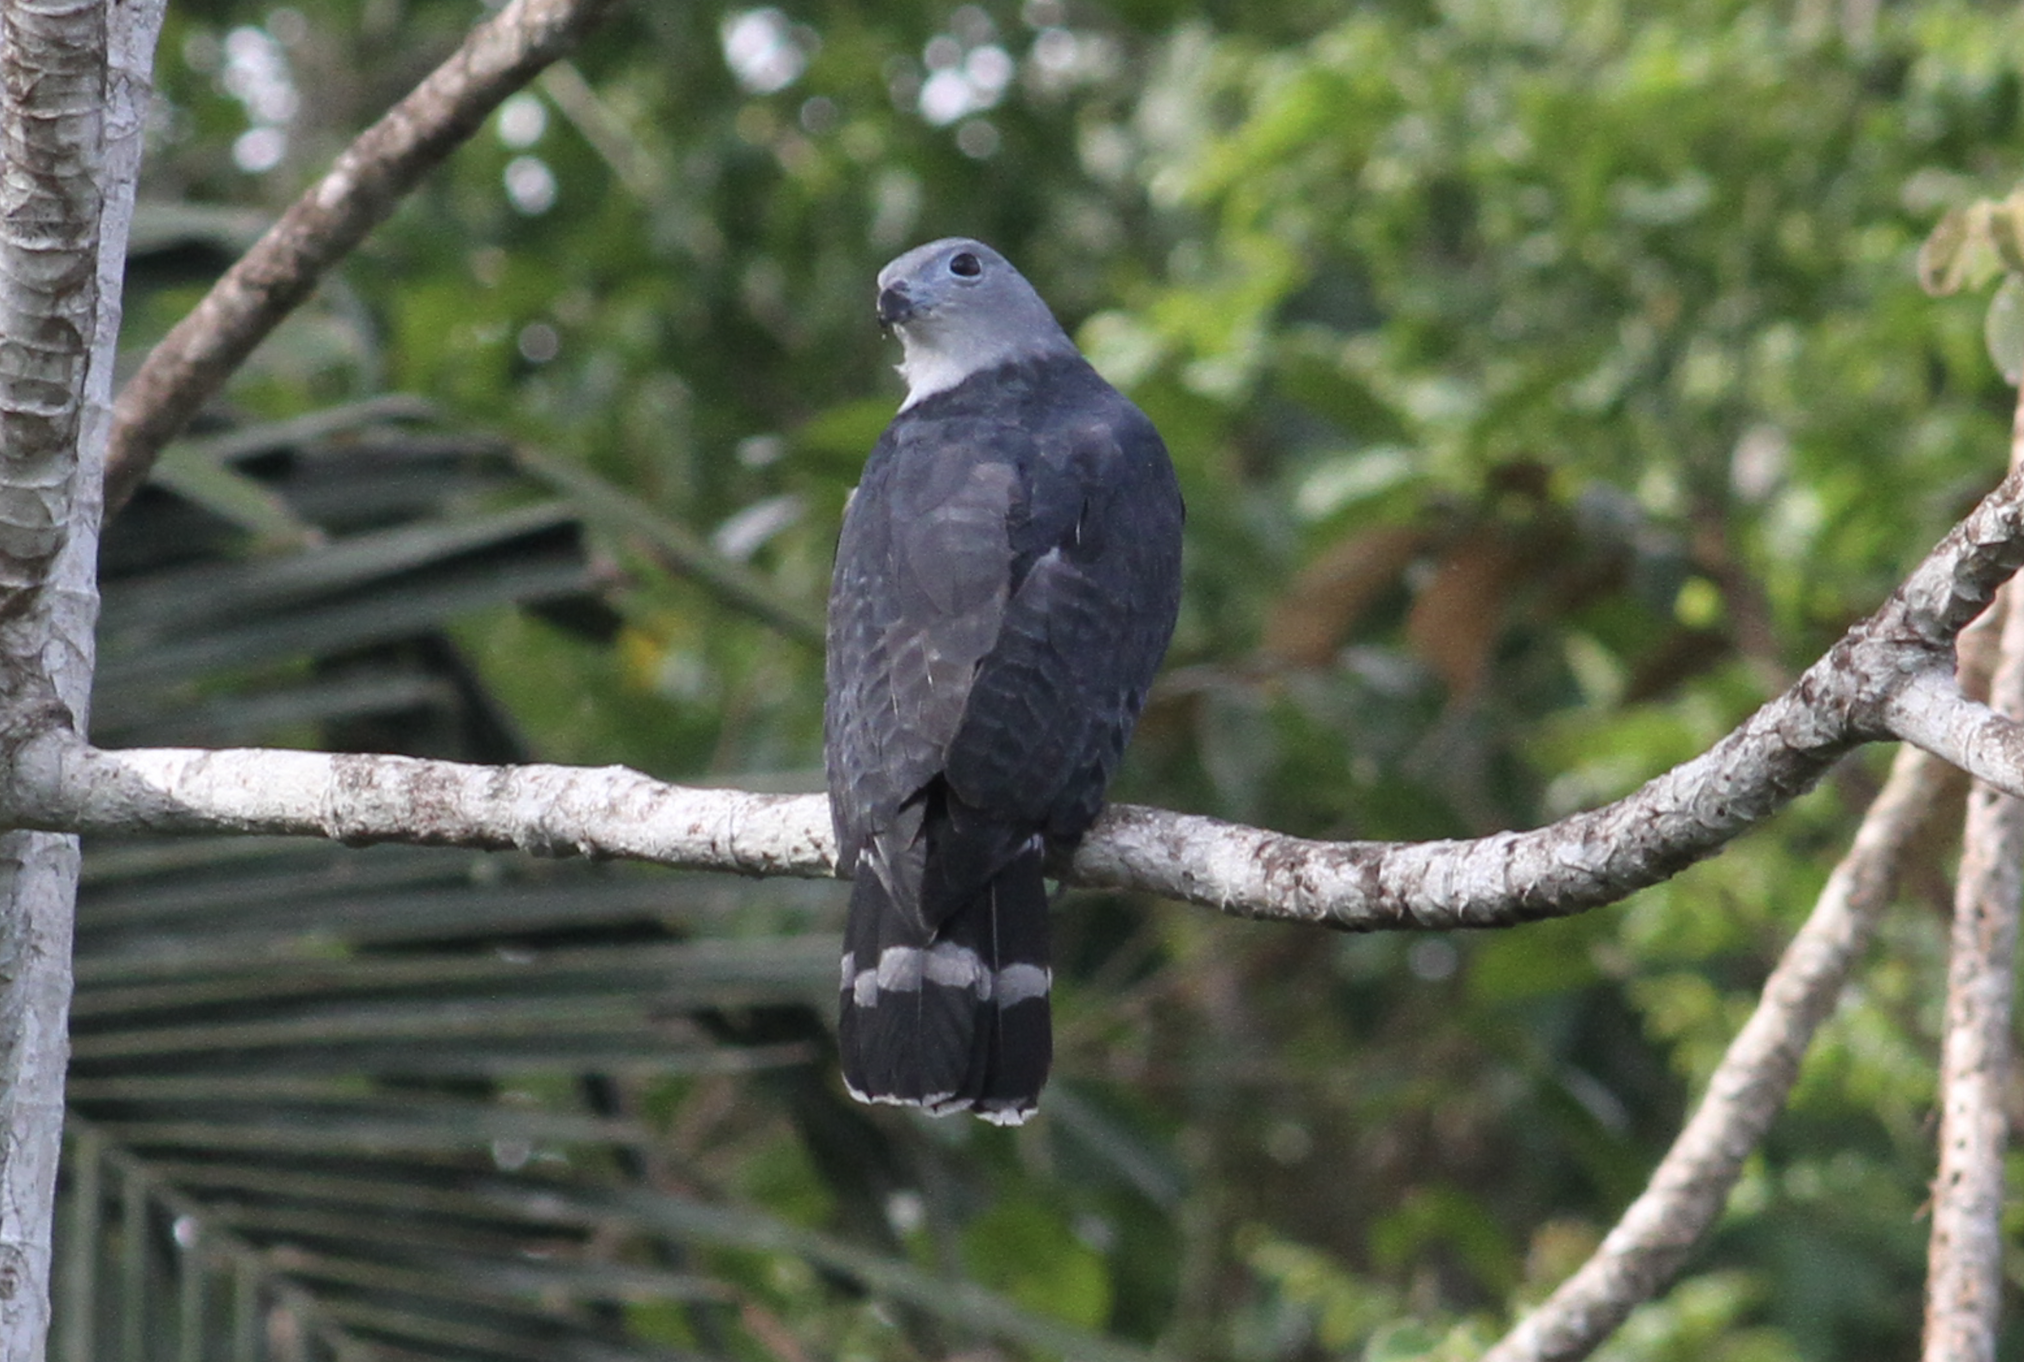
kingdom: Animalia
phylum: Chordata
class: Aves
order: Accipitriformes
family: Accipitridae
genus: Leptodon
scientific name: Leptodon cayanensis
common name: Gray-headed kite
